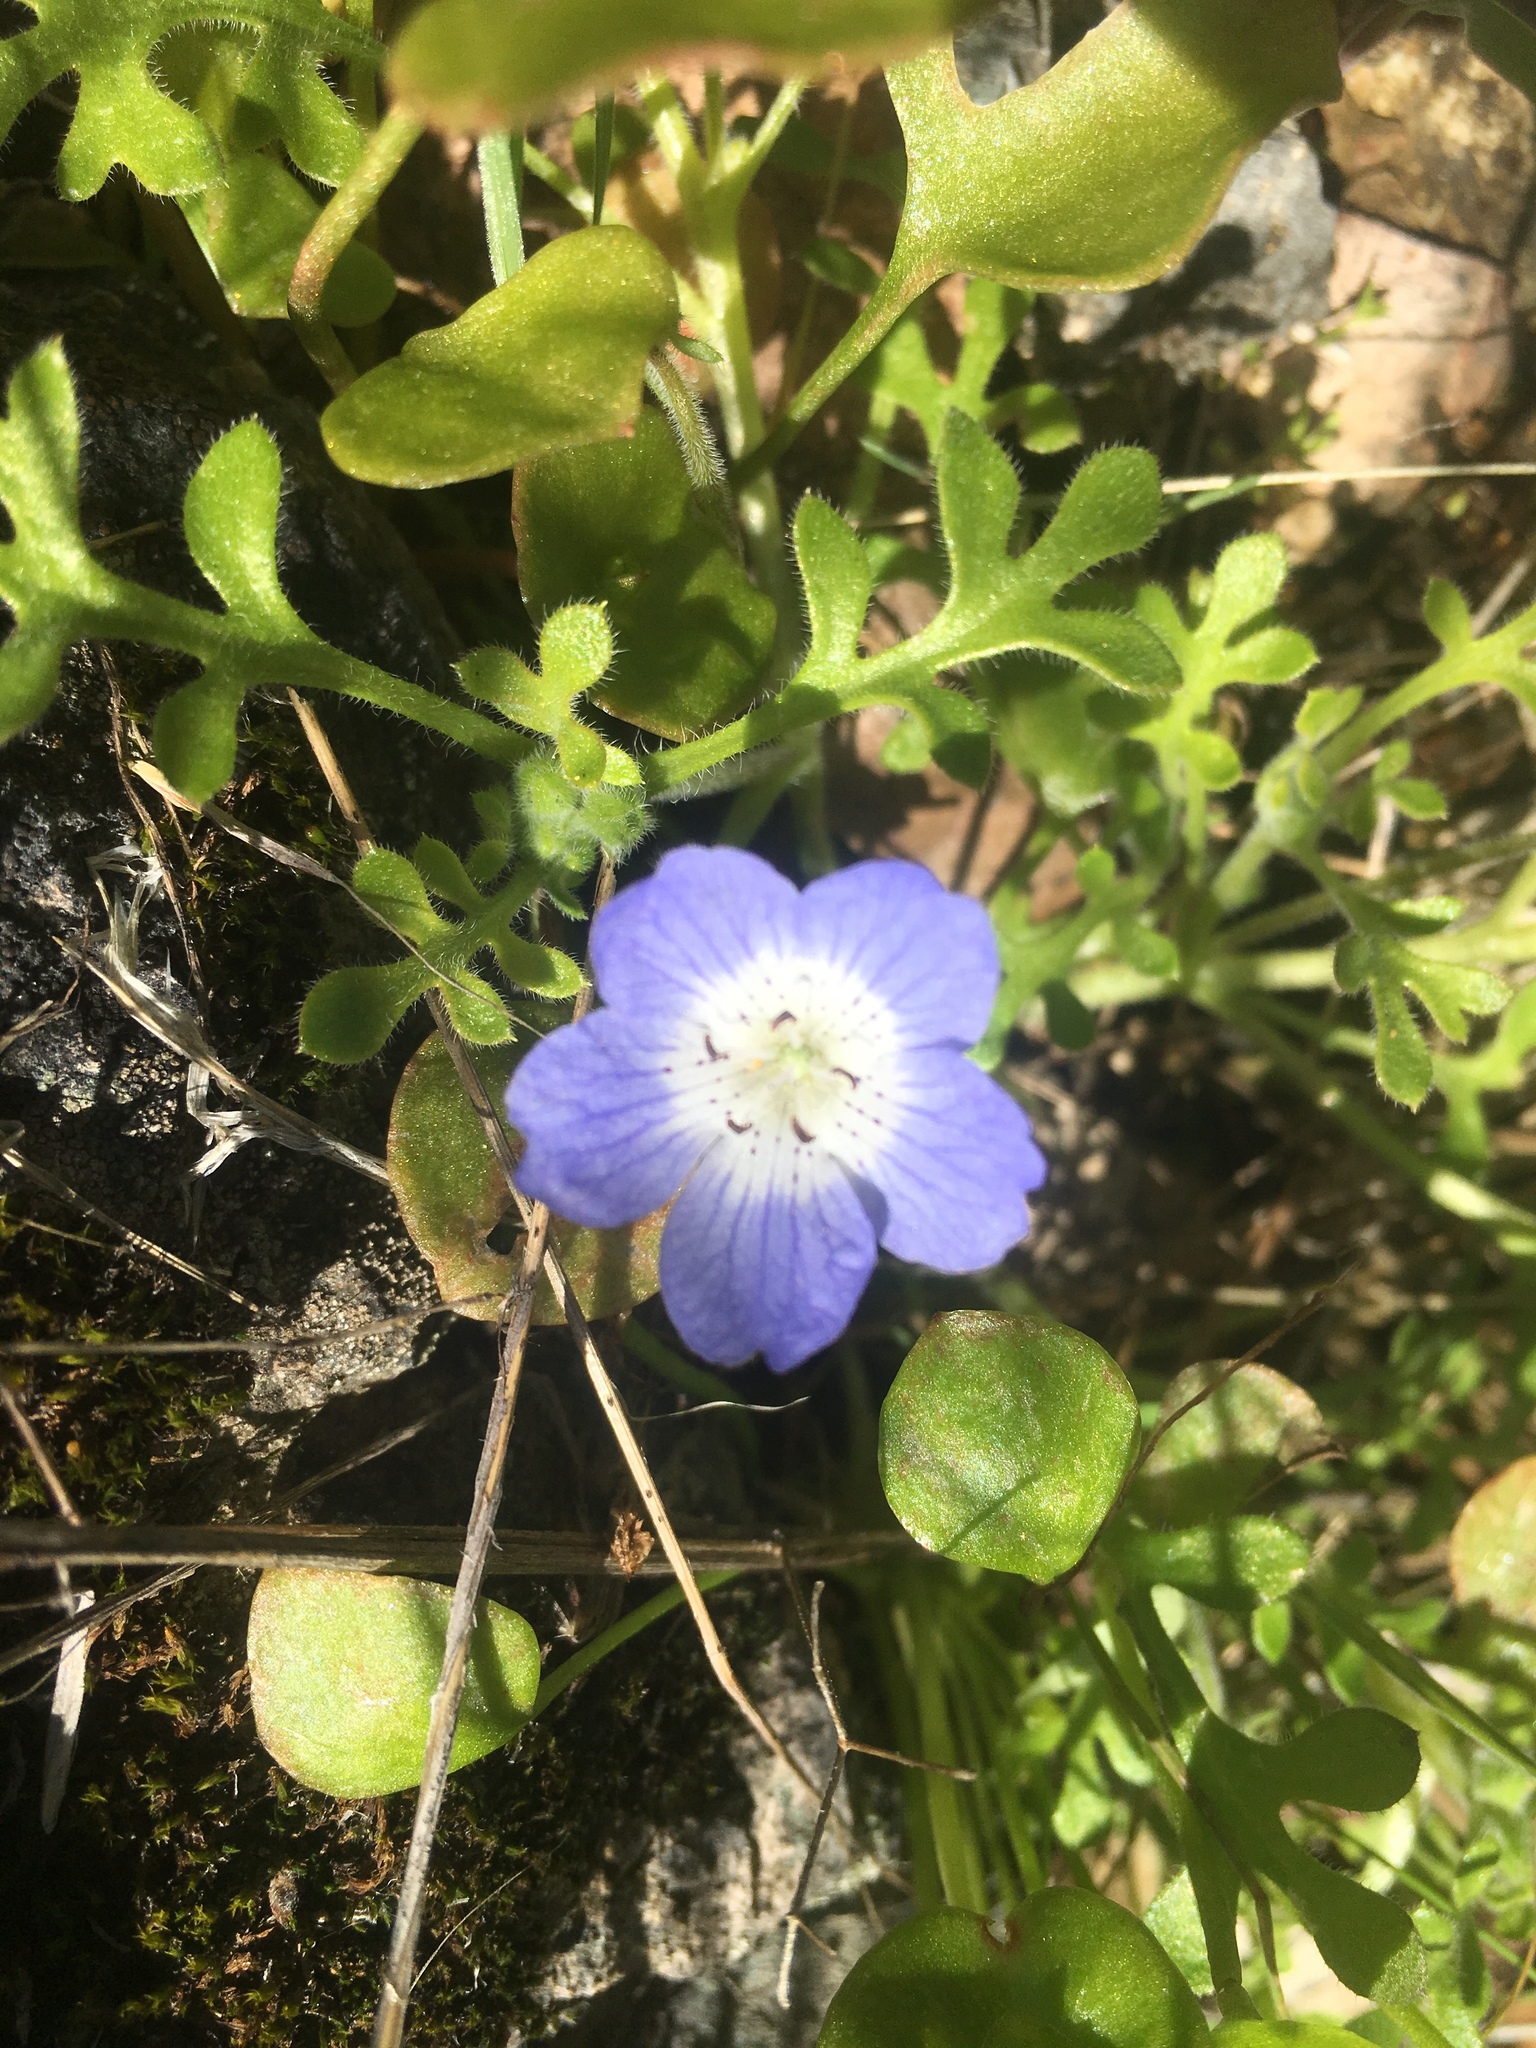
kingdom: Plantae
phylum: Tracheophyta
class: Magnoliopsida
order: Boraginales
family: Hydrophyllaceae
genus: Nemophila
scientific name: Nemophila menziesii
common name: Baby's-blue-eyes
